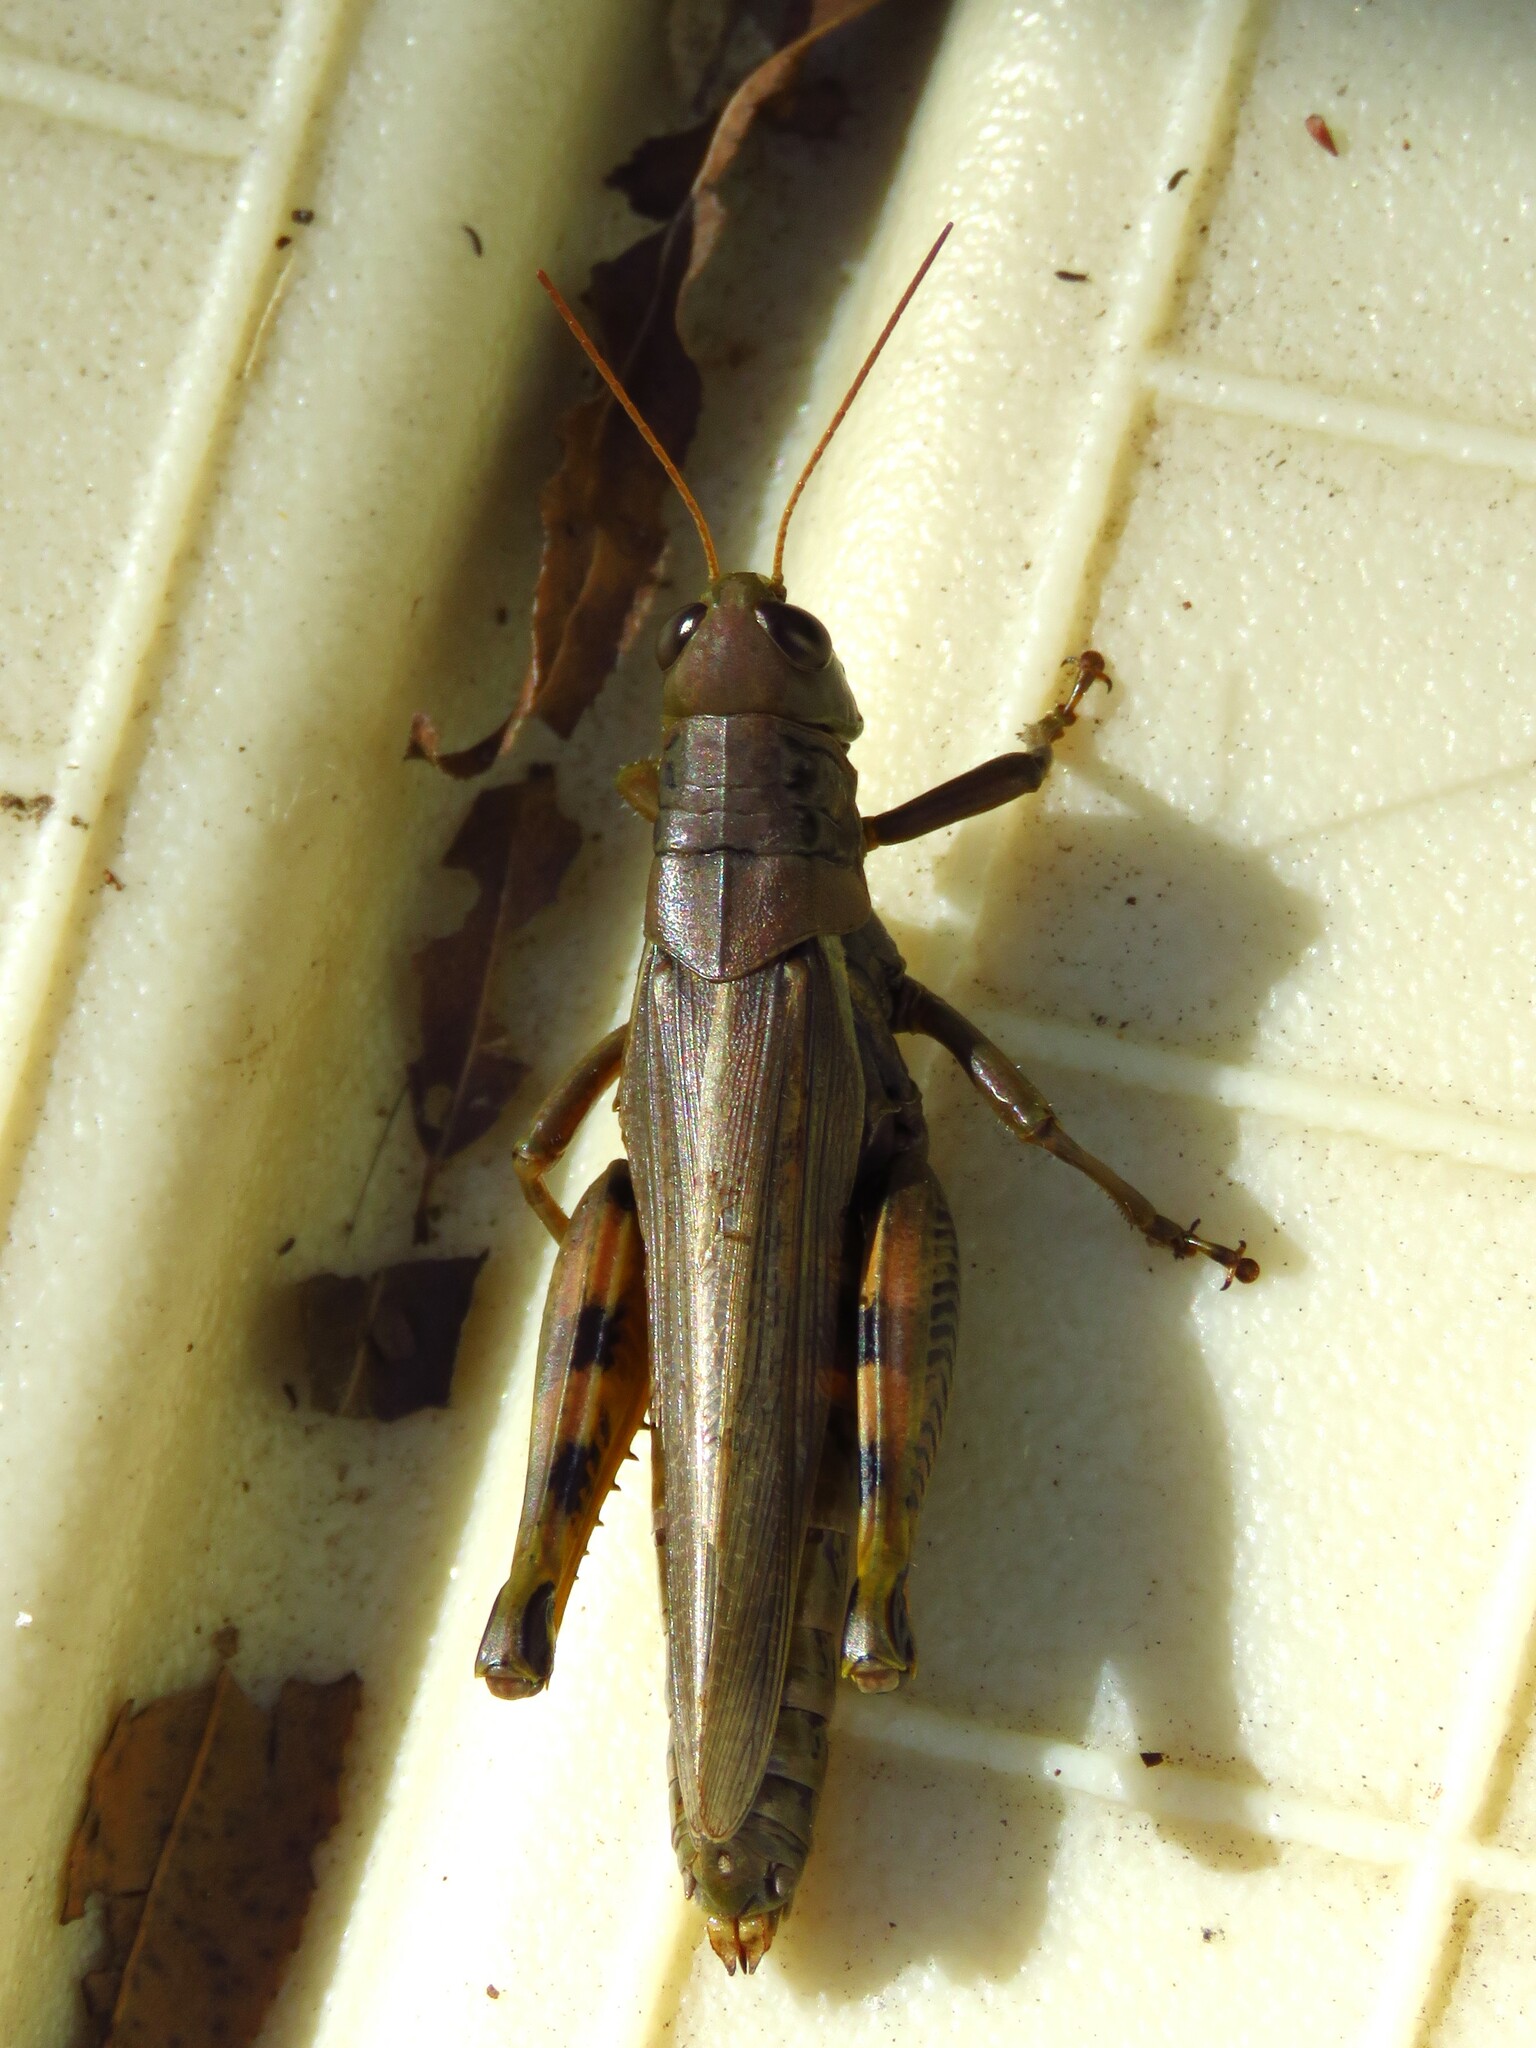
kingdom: Animalia
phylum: Arthropoda
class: Insecta
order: Orthoptera
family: Acrididae
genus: Melanoplus
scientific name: Melanoplus differentialis
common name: Differential grasshopper
